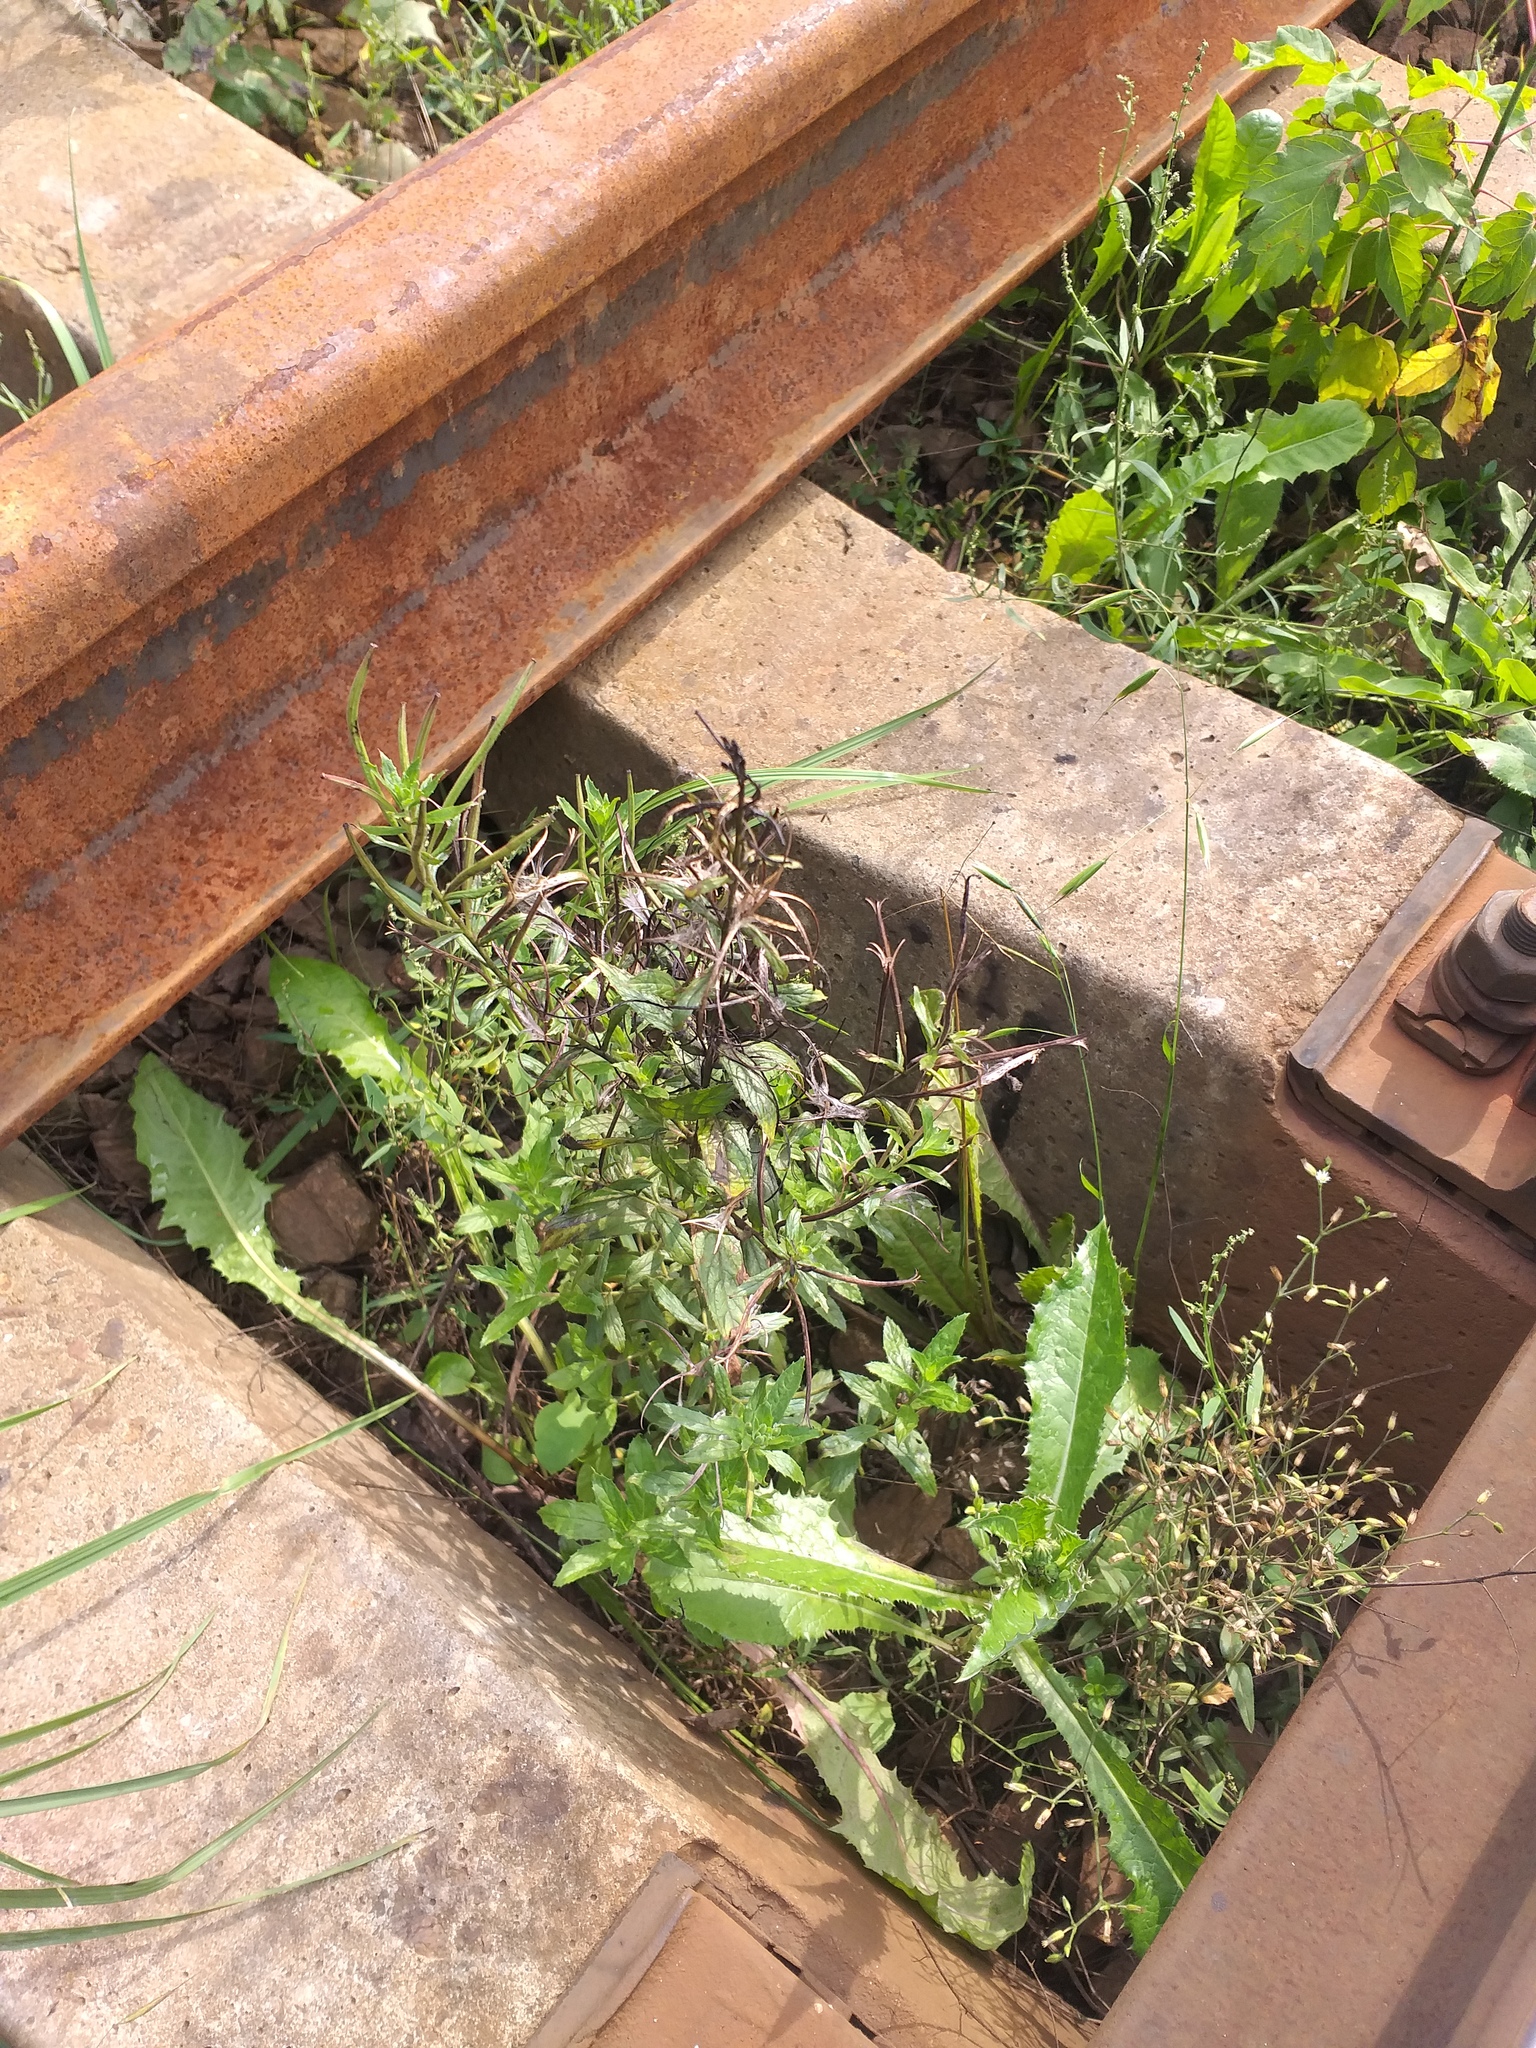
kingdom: Plantae
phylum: Tracheophyta
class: Magnoliopsida
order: Myrtales
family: Onagraceae
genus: Epilobium
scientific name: Epilobium
